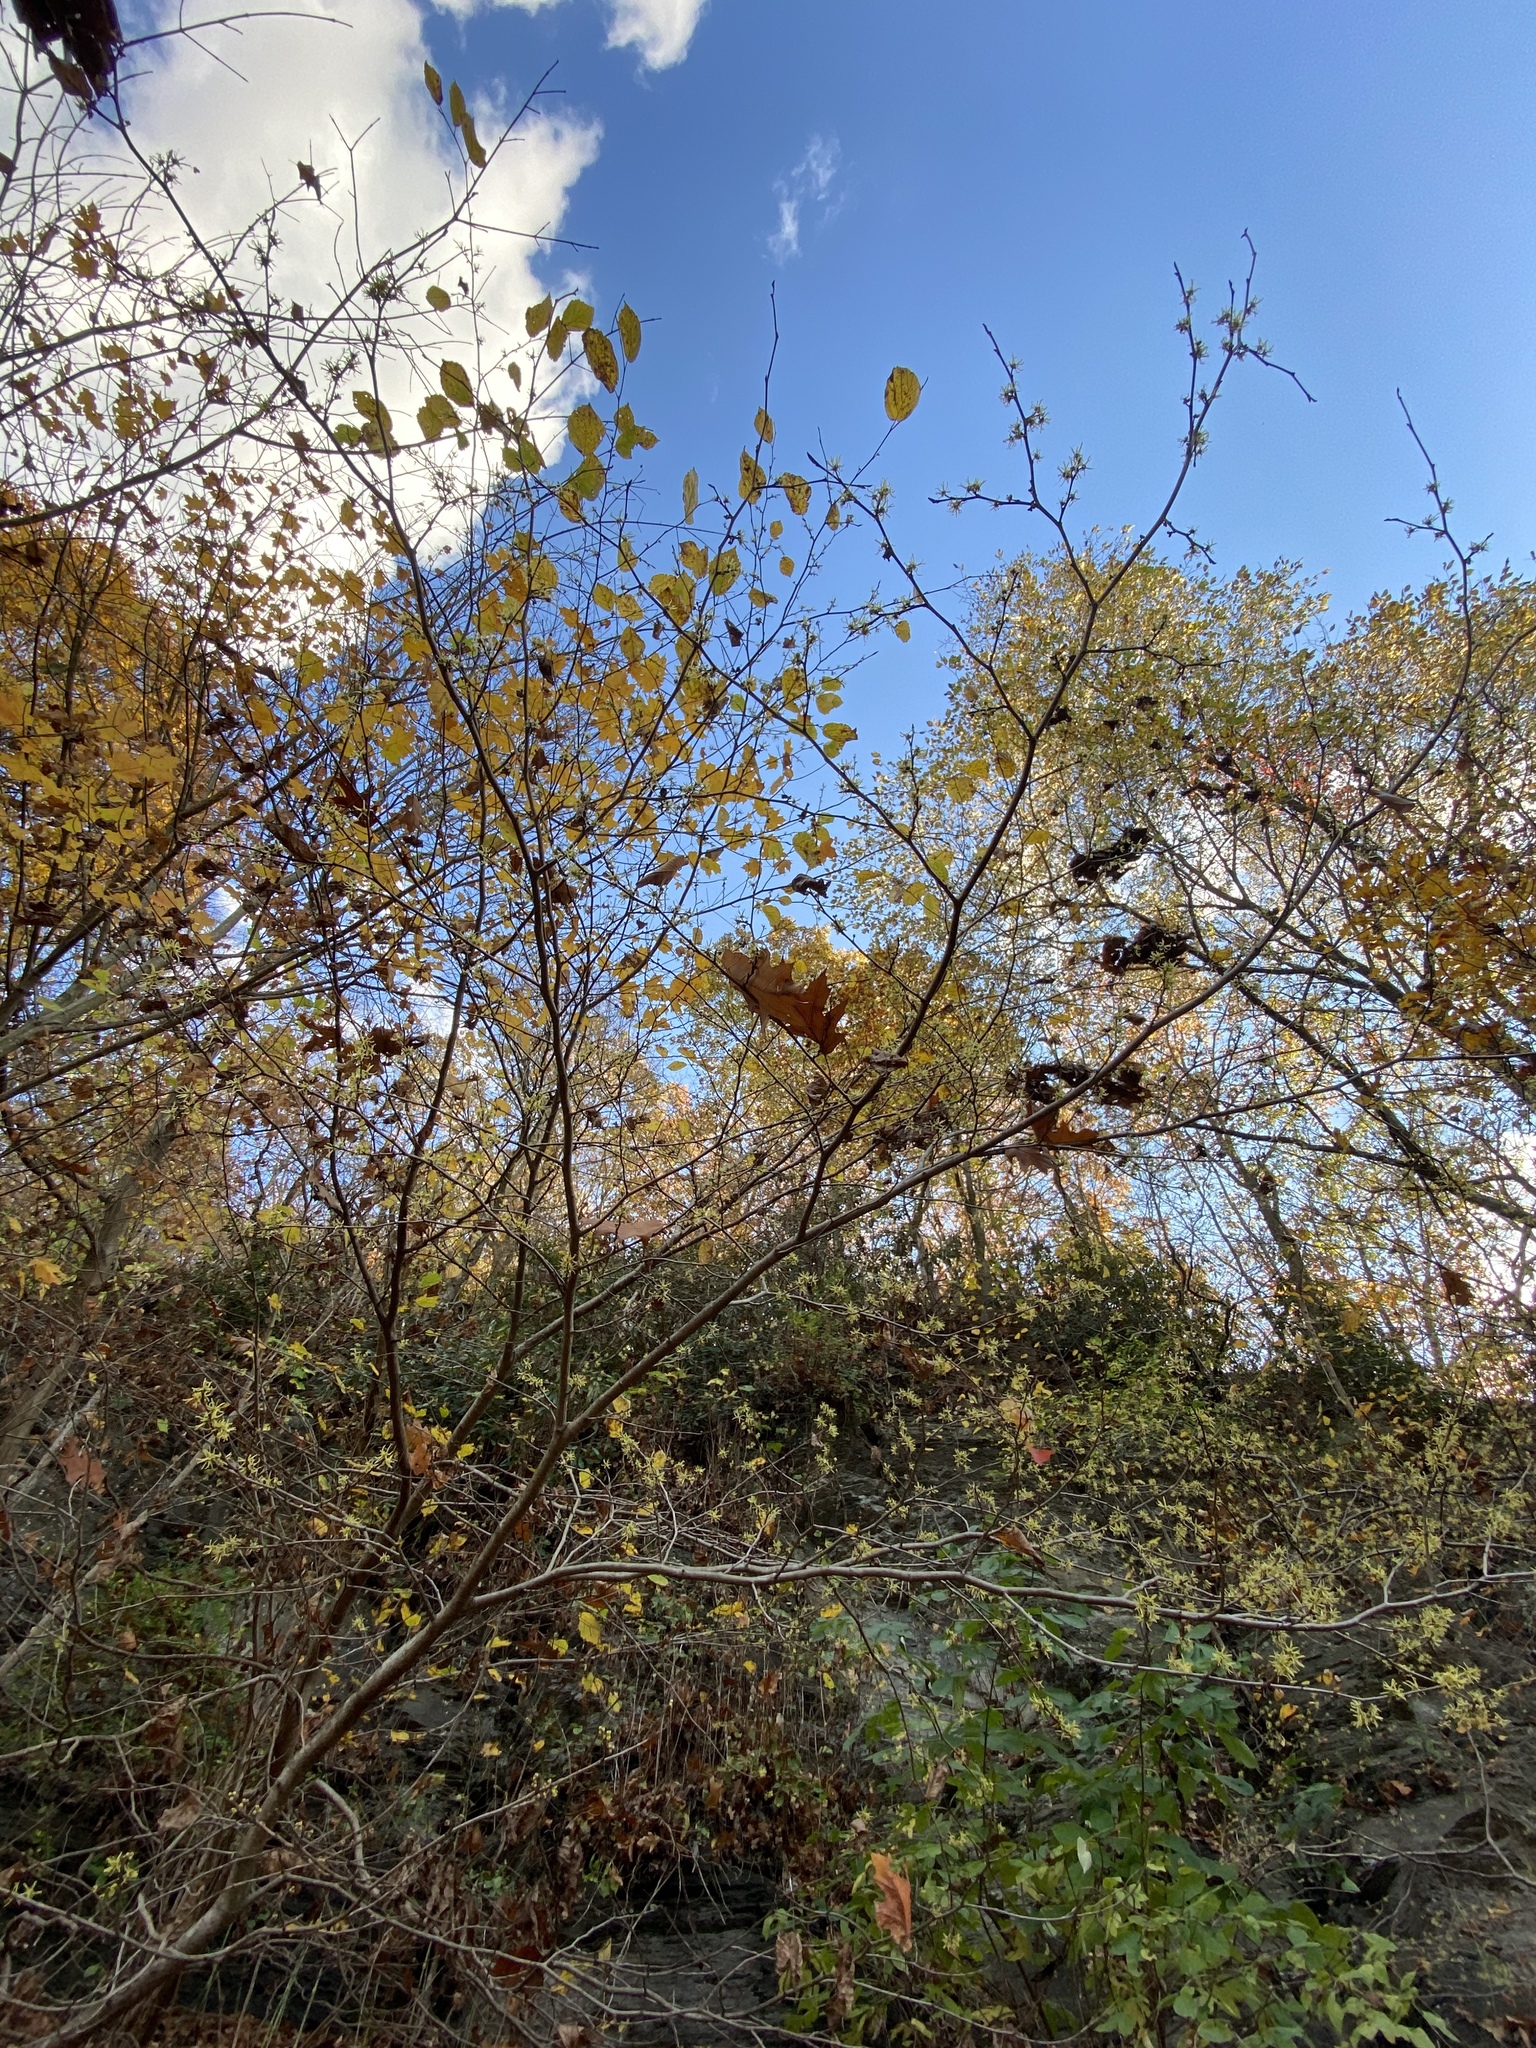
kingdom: Plantae
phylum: Tracheophyta
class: Magnoliopsida
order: Saxifragales
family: Hamamelidaceae
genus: Hamamelis
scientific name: Hamamelis virginiana
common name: Witch-hazel
